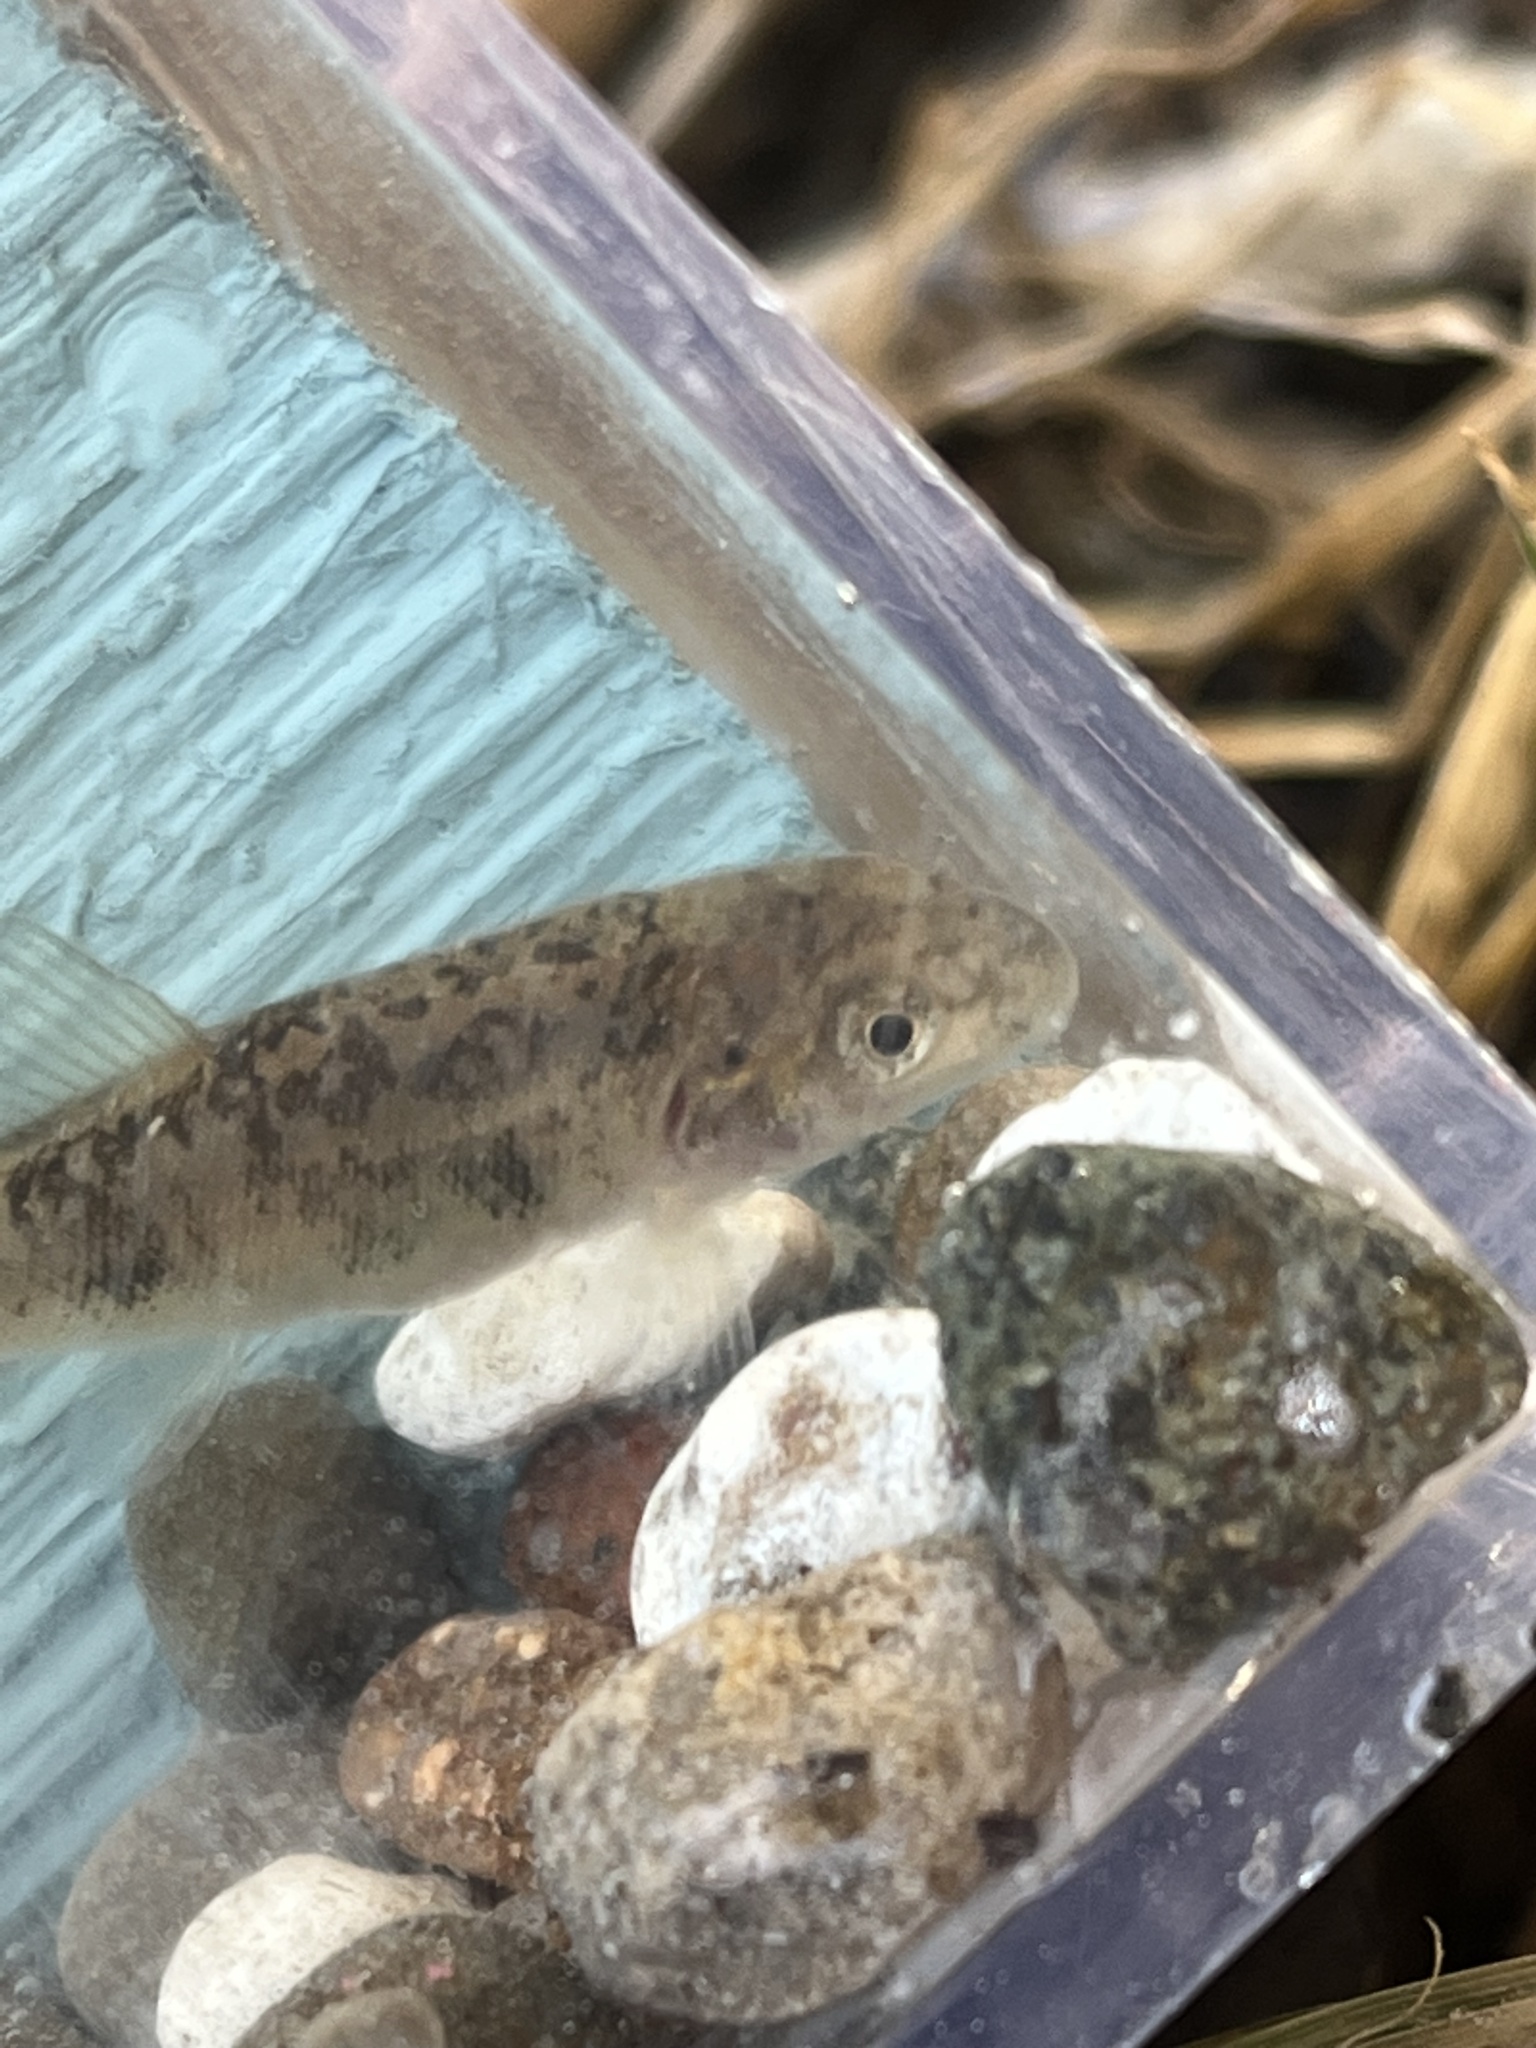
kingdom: Animalia
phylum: Chordata
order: Cypriniformes
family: Catostomidae
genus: Catostomus
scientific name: Catostomus commersonii
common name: White sucker
